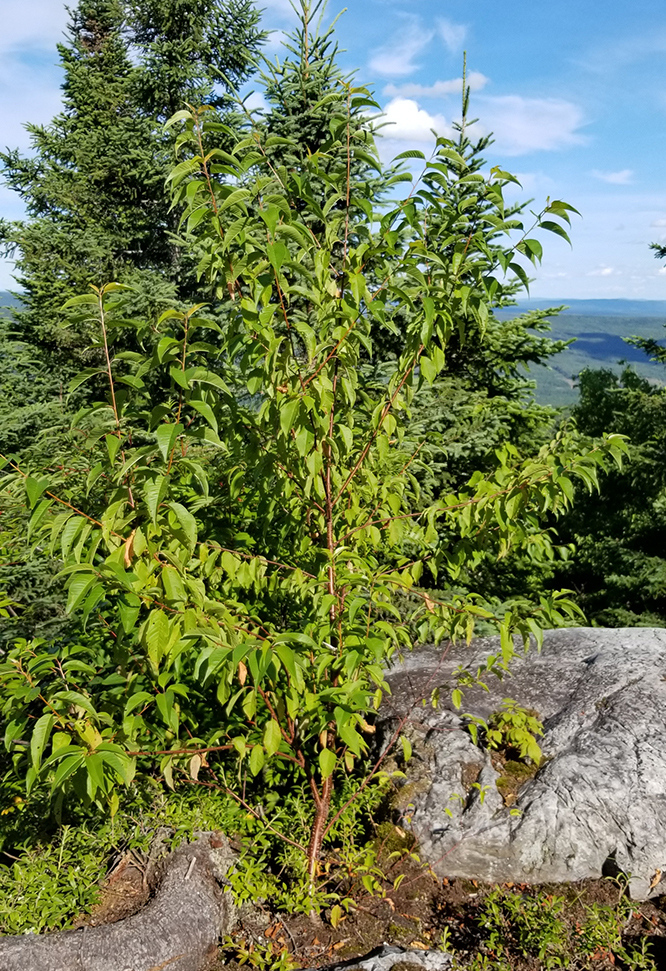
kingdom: Plantae
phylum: Tracheophyta
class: Magnoliopsida
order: Rosales
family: Rosaceae
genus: Prunus
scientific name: Prunus pensylvanica
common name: Pin cherry
